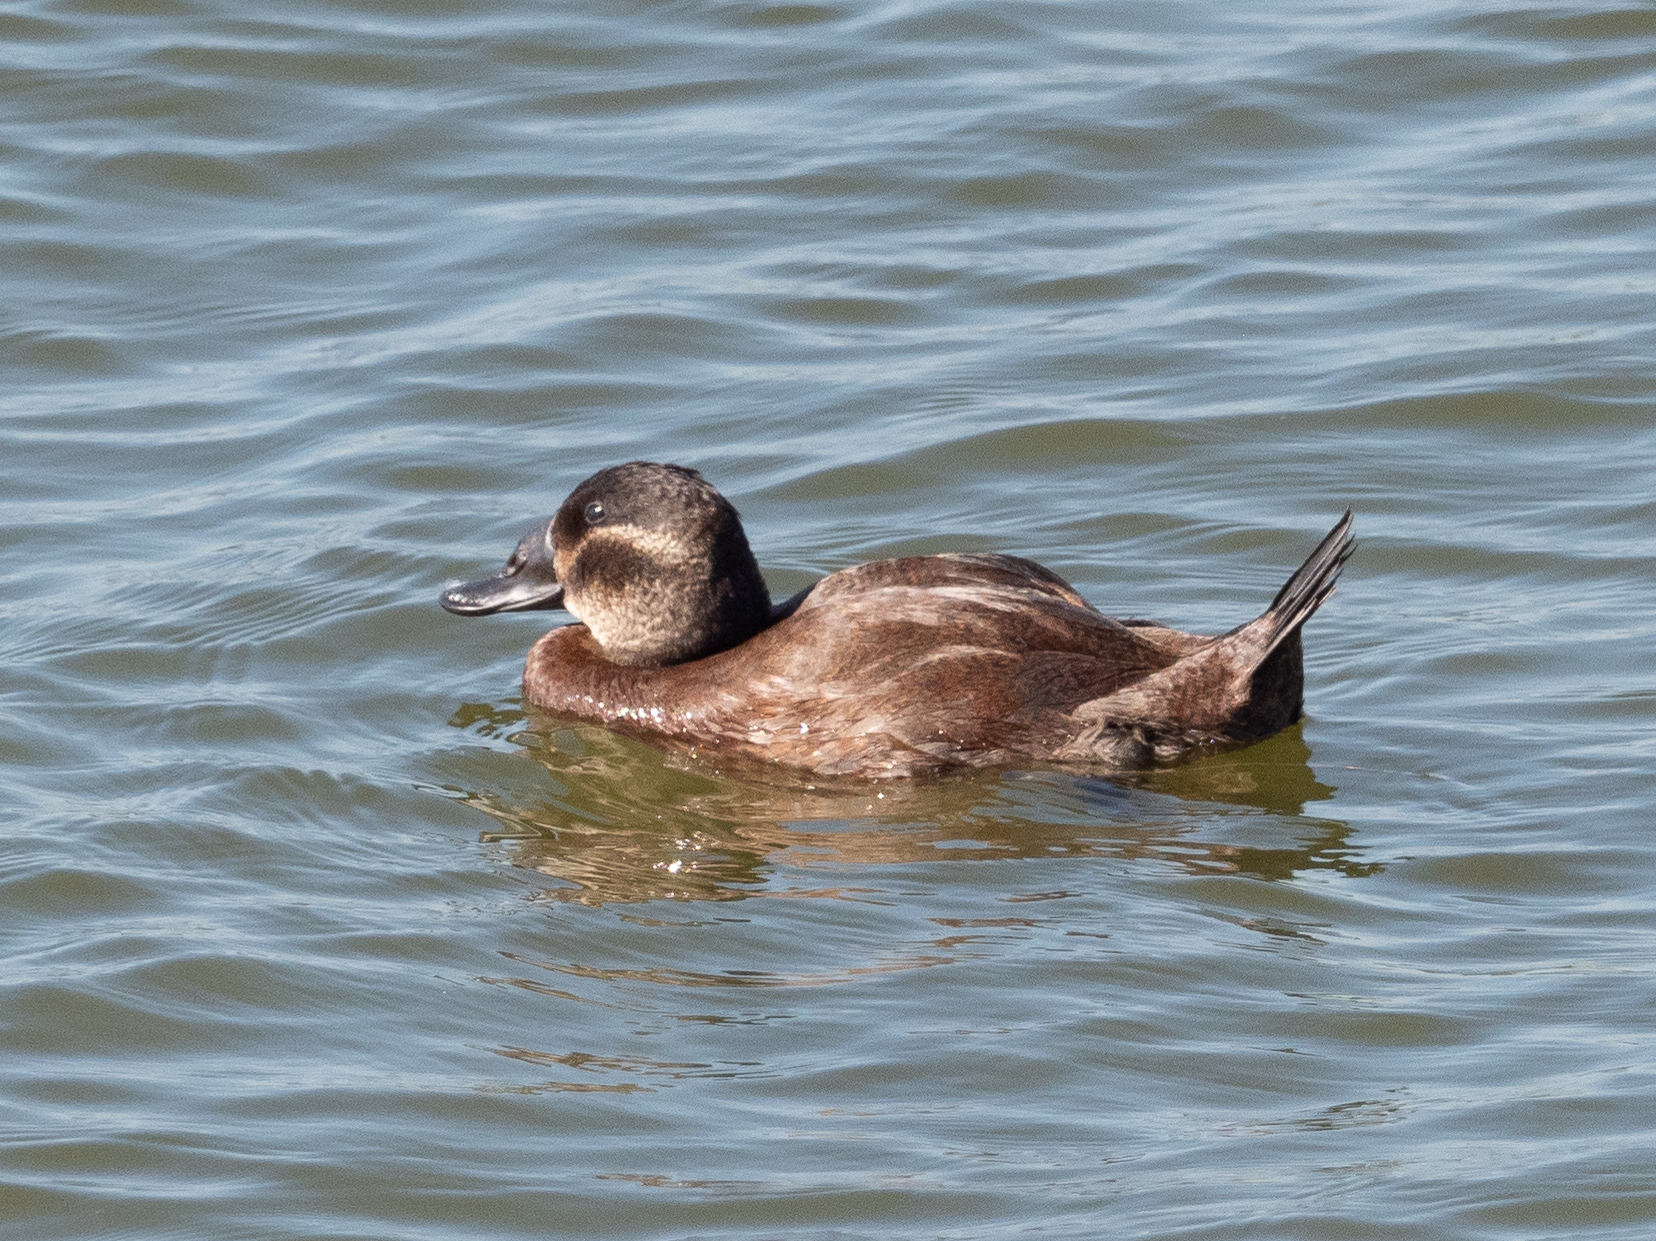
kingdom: Animalia
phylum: Chordata
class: Aves
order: Anseriformes
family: Anatidae
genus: Oxyura
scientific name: Oxyura leucocephala
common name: White-headed duck
